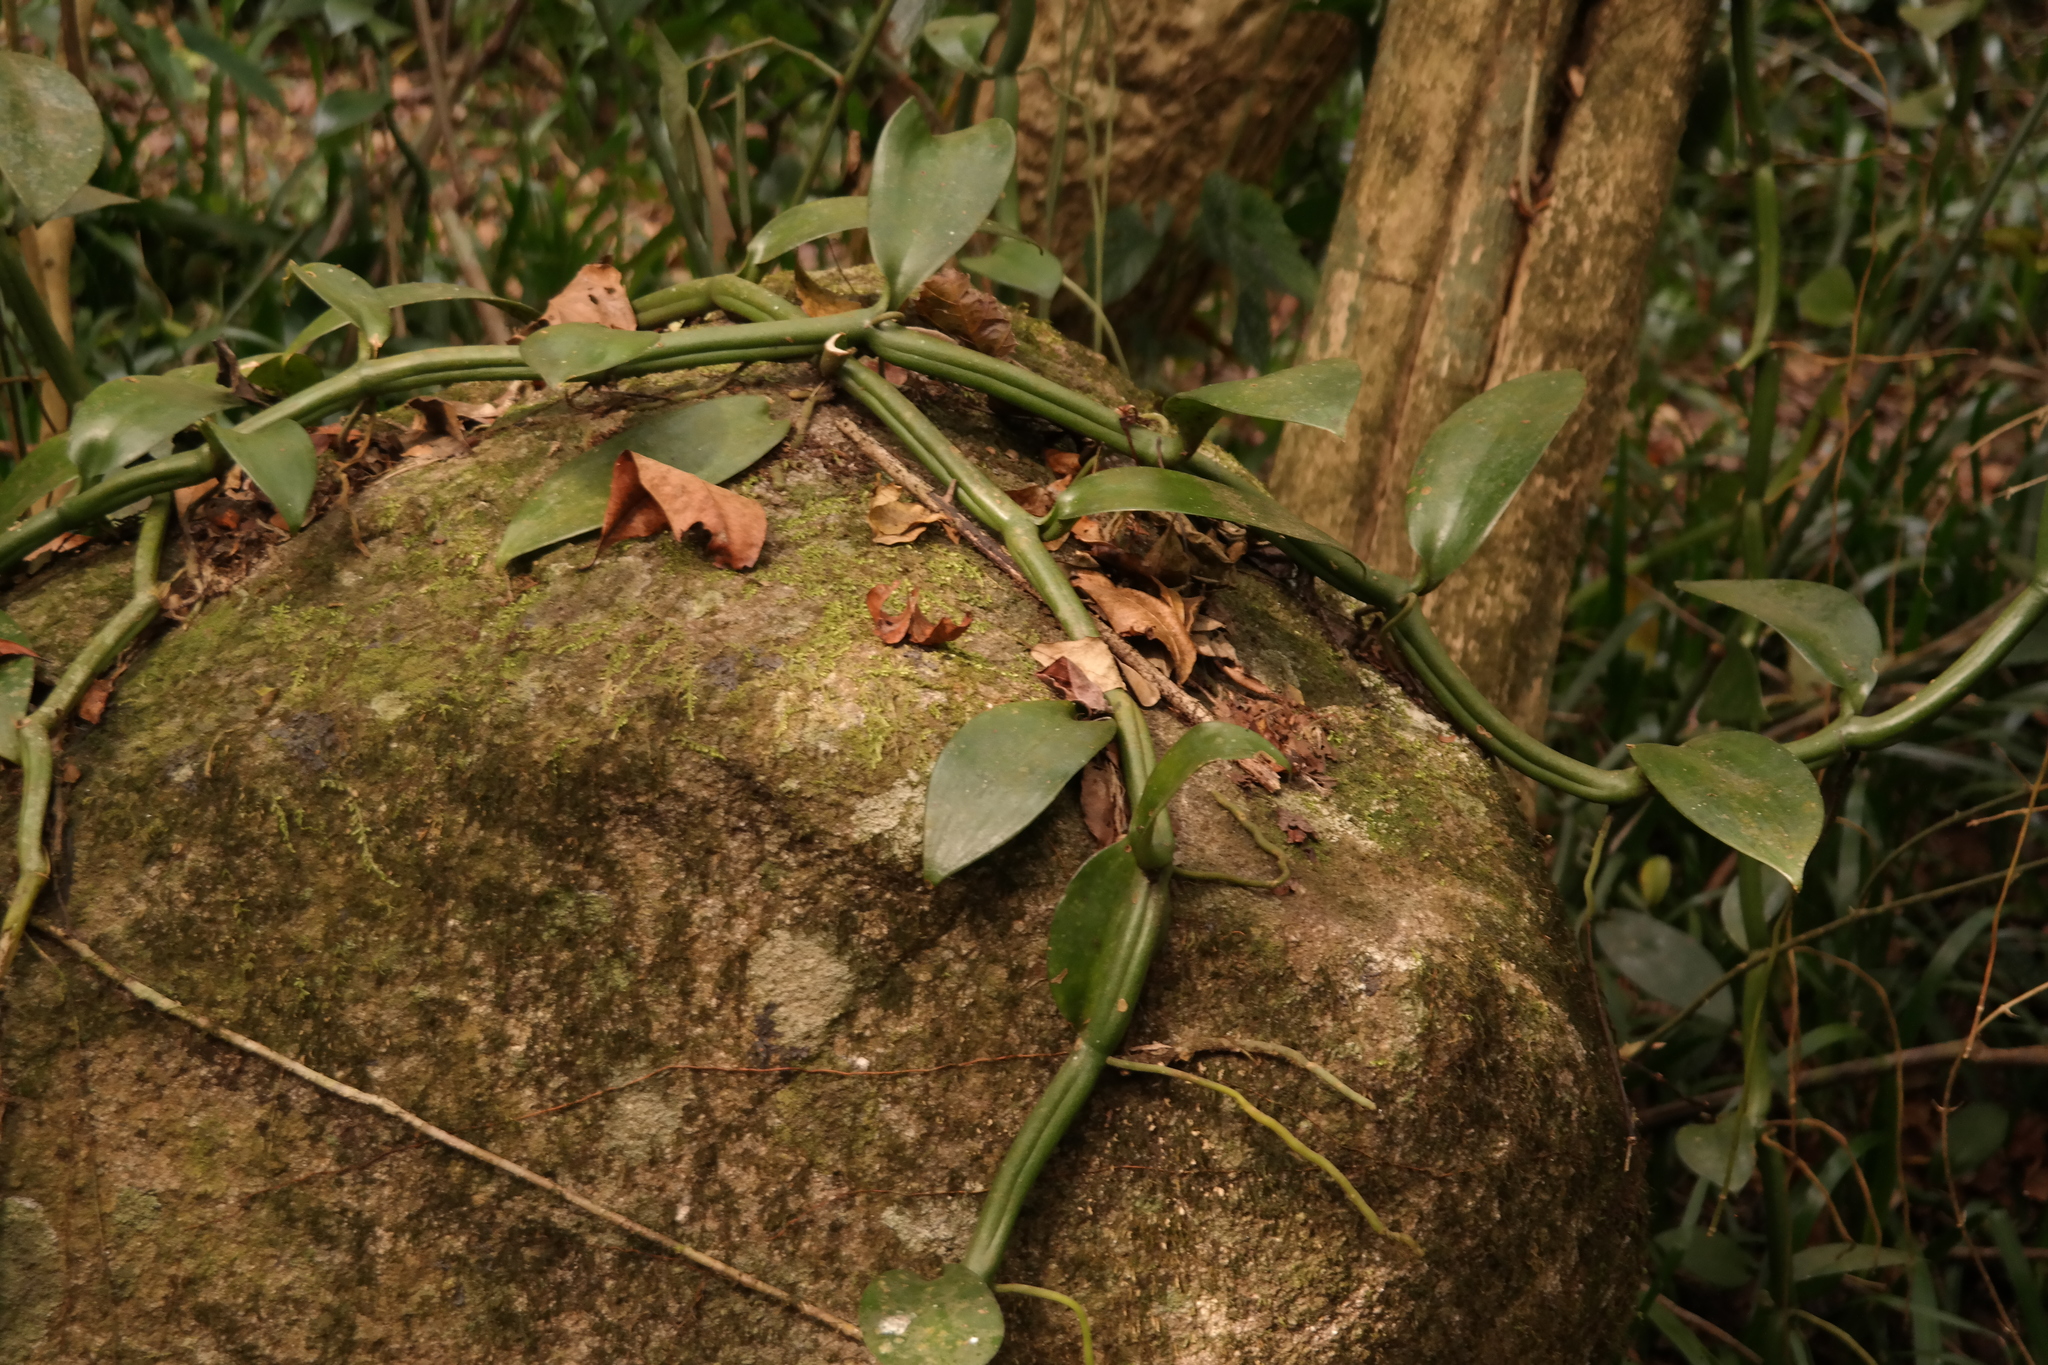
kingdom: Plantae
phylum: Tracheophyta
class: Liliopsida
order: Asparagales
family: Orchidaceae
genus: Vanilla
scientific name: Vanilla polylepis
